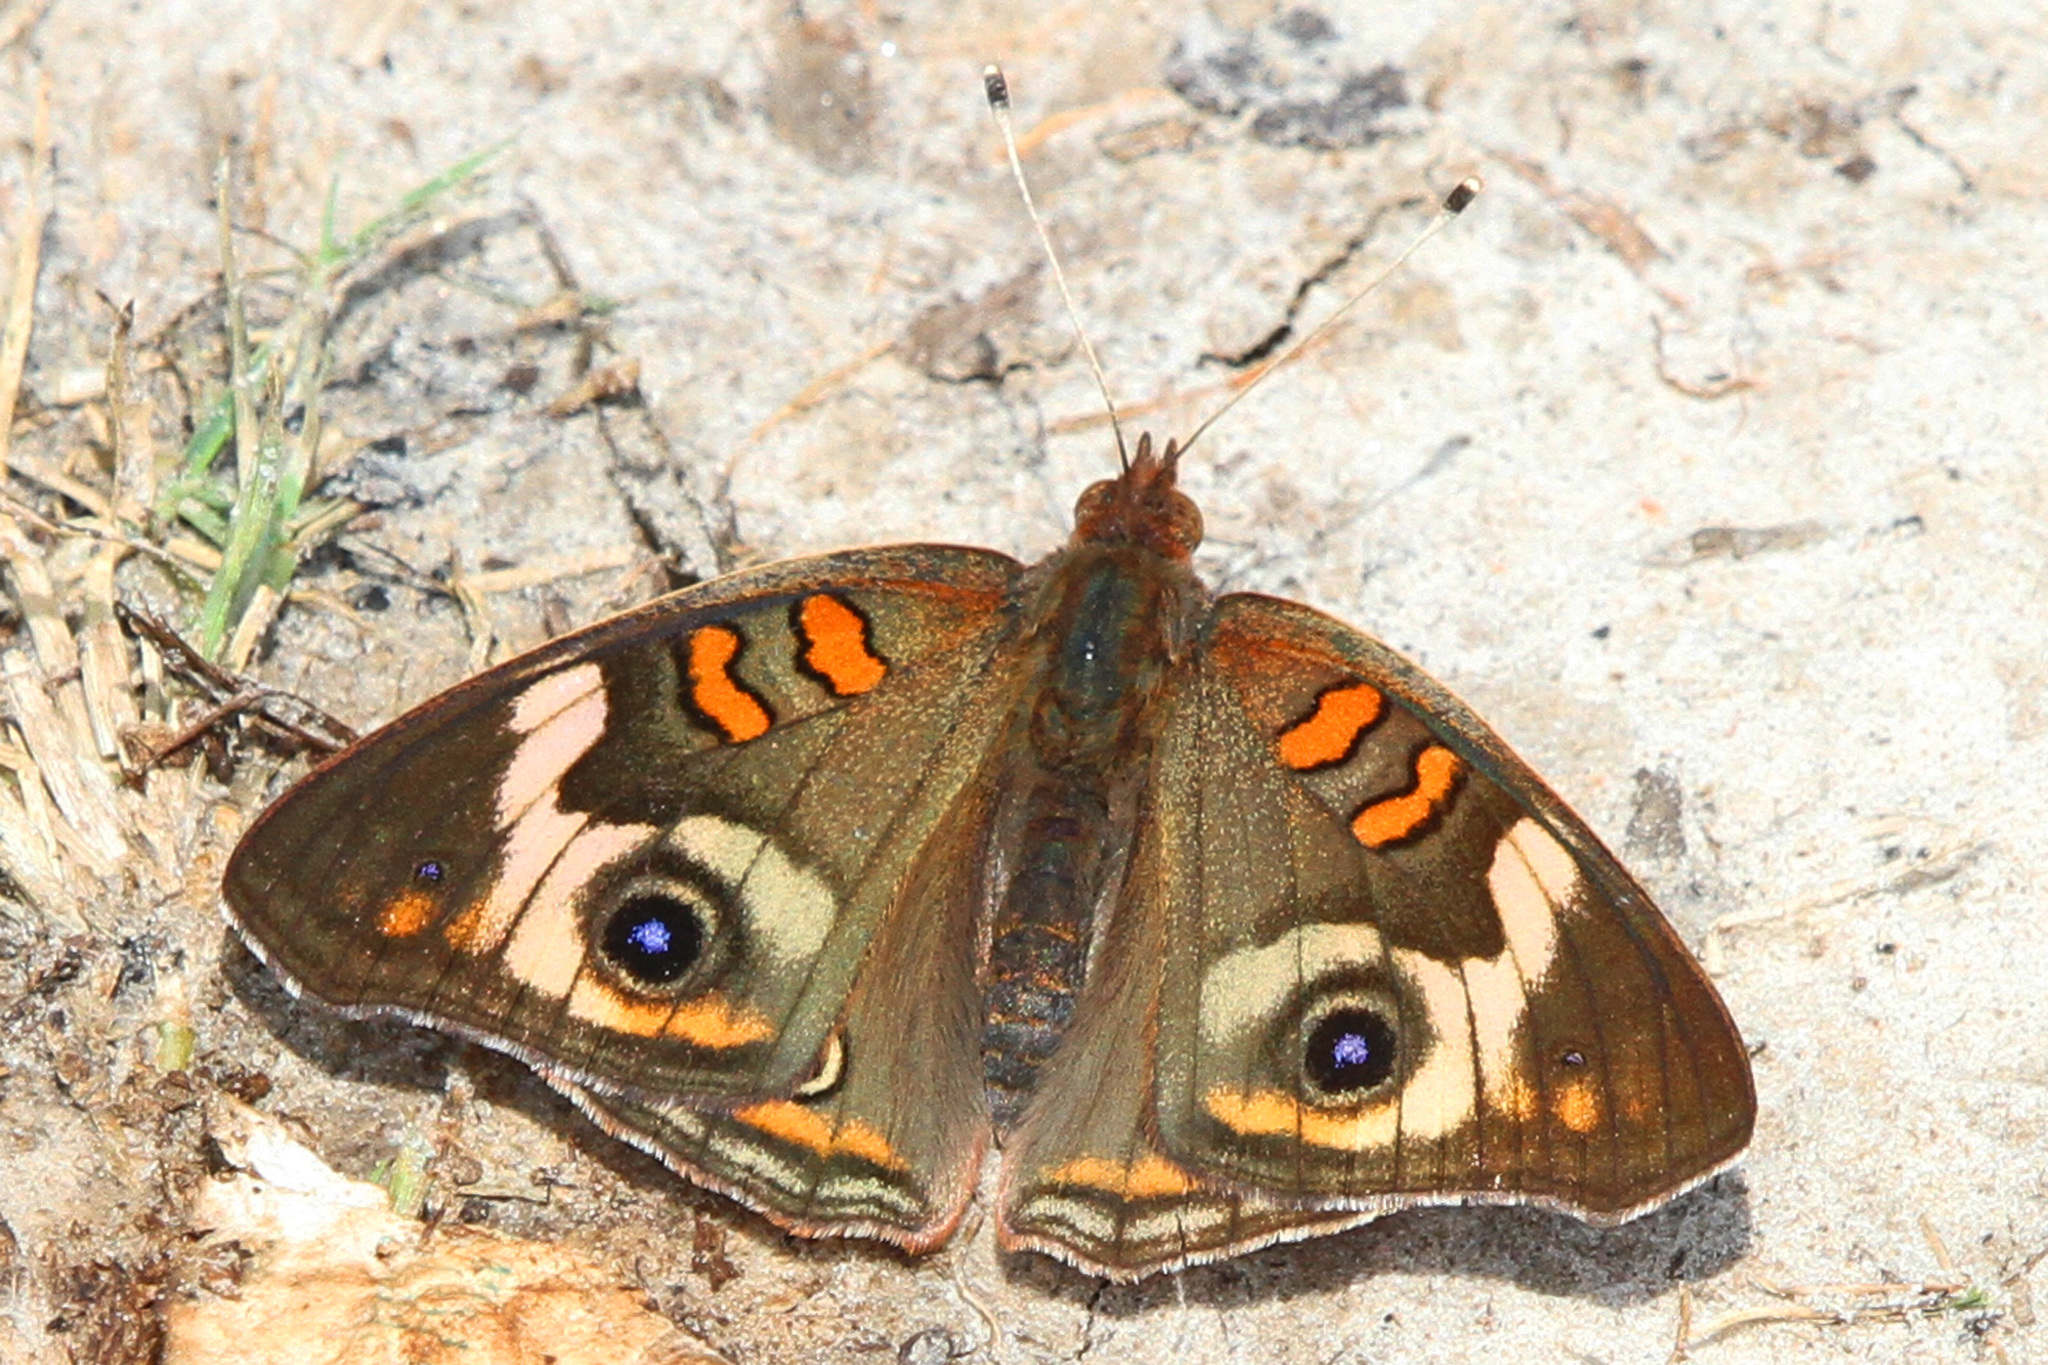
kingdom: Animalia
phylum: Arthropoda
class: Insecta
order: Lepidoptera
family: Nymphalidae
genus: Junonia
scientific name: Junonia coenia
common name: Common buckeye
